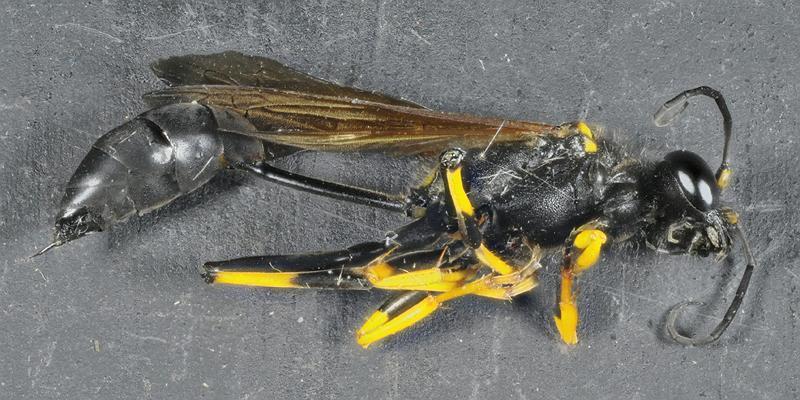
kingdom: Animalia
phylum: Arthropoda
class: Insecta
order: Hymenoptera
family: Sphecidae
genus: Sceliphron
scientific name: Sceliphron caementarium
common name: Mud dauber
